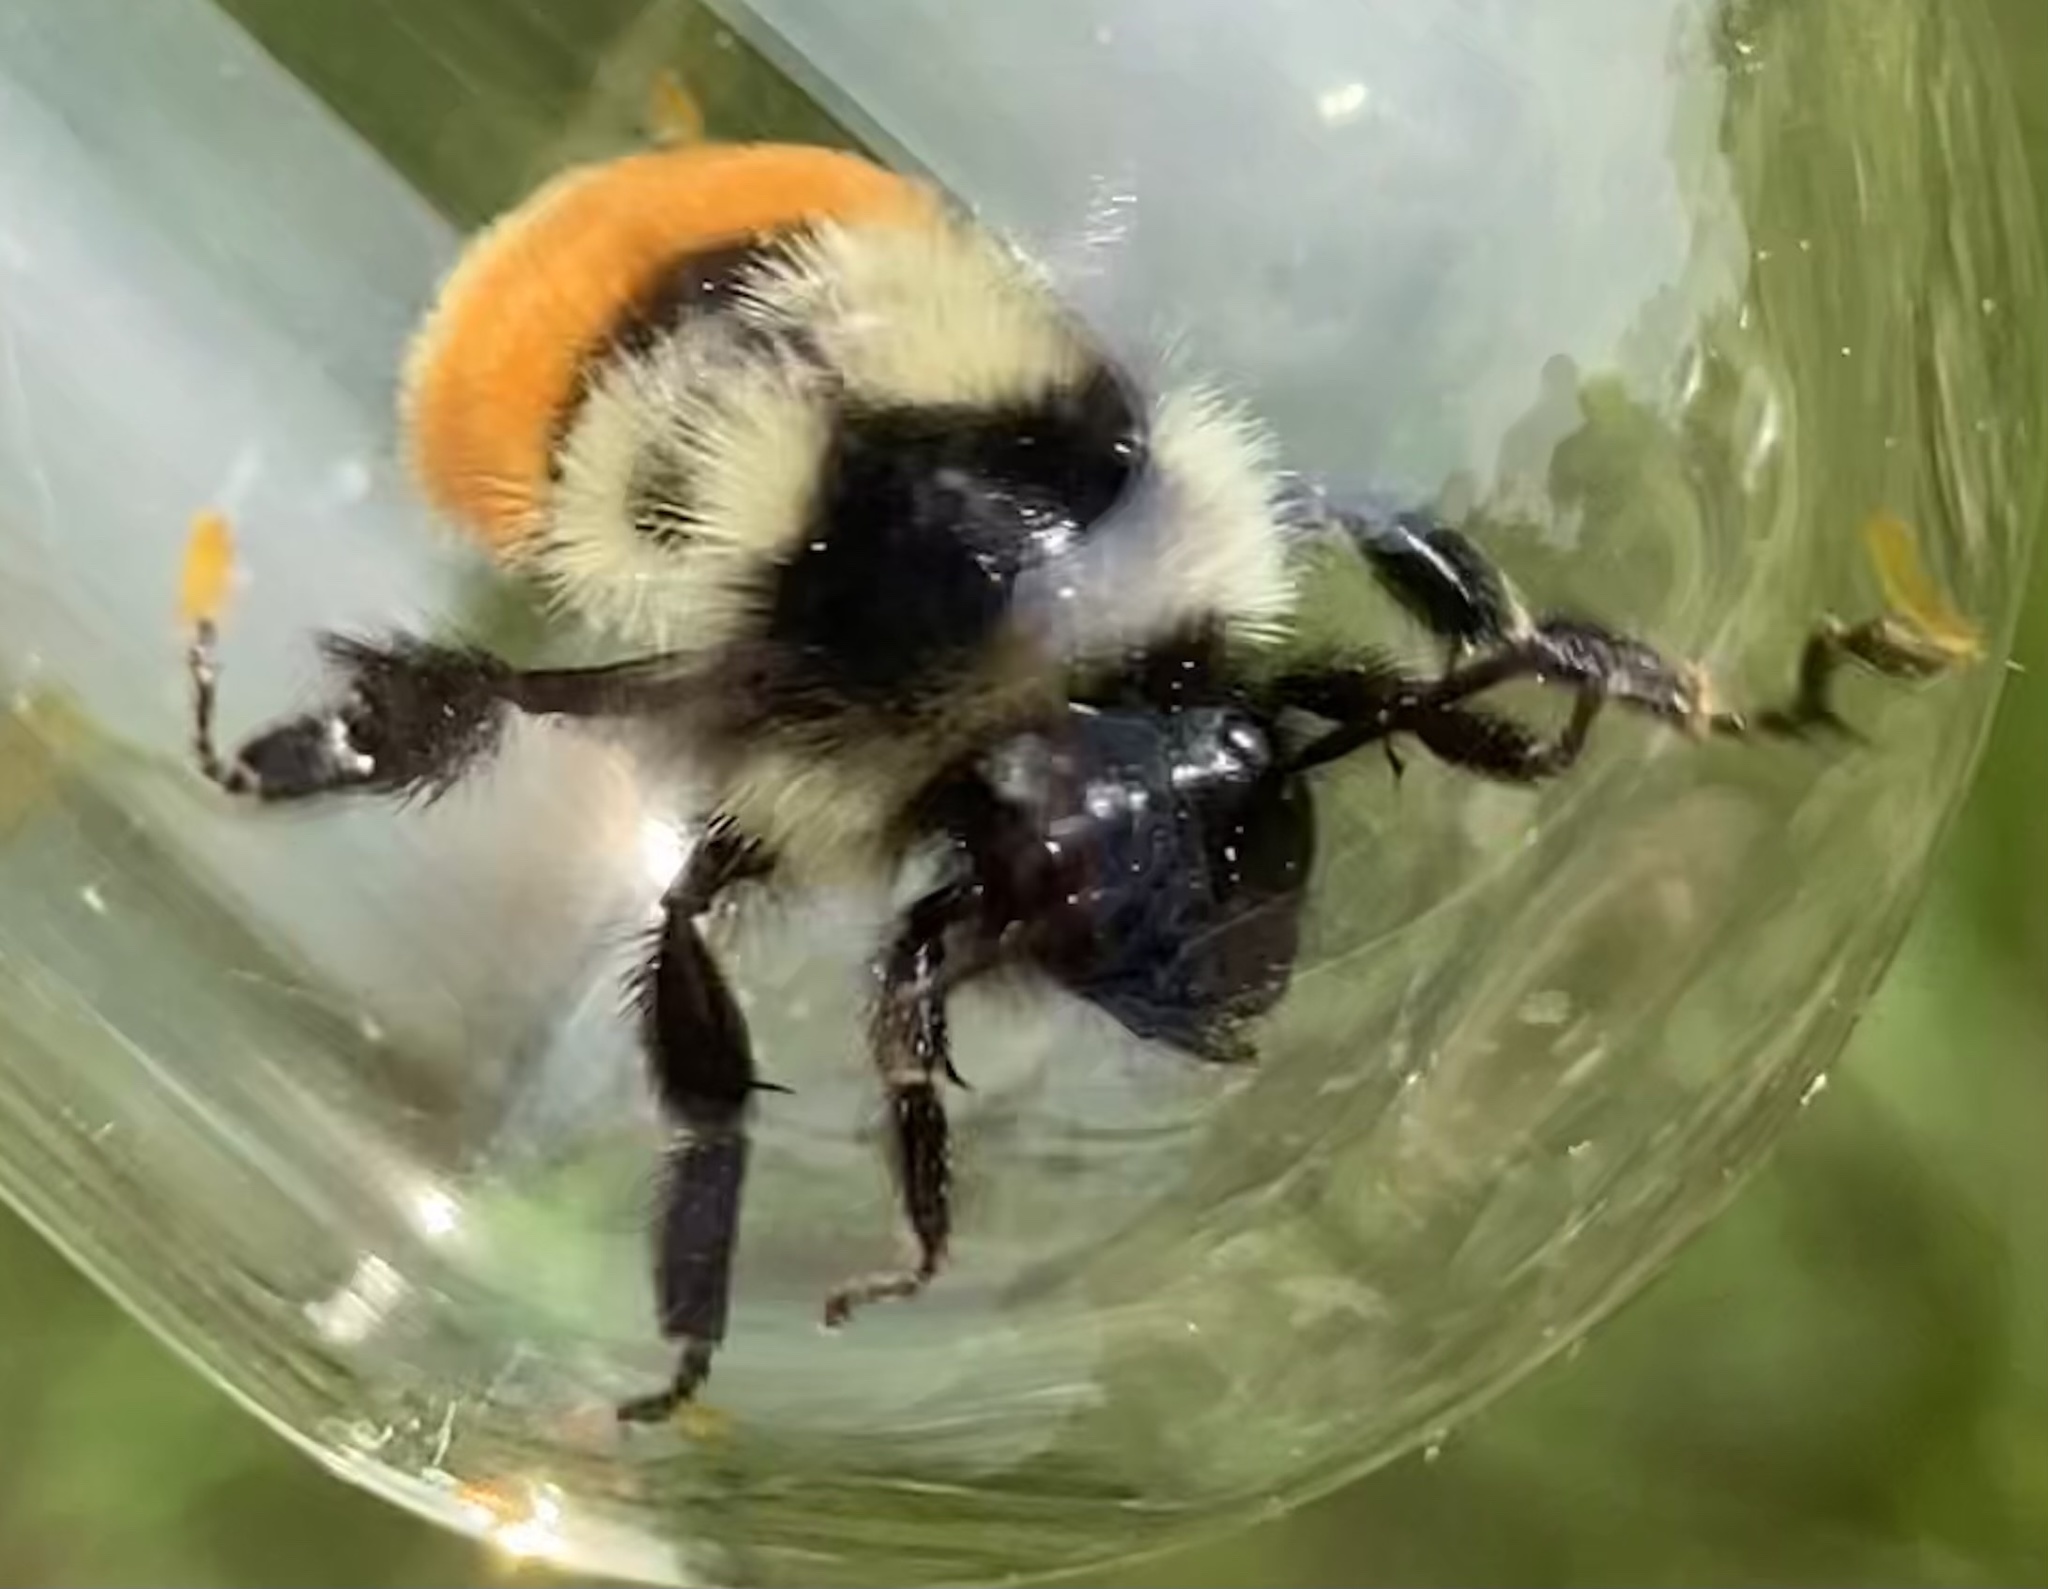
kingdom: Animalia
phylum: Arthropoda
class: Insecta
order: Hymenoptera
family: Apidae
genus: Bombus
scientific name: Bombus ternarius
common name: Tri-colored bumble bee
